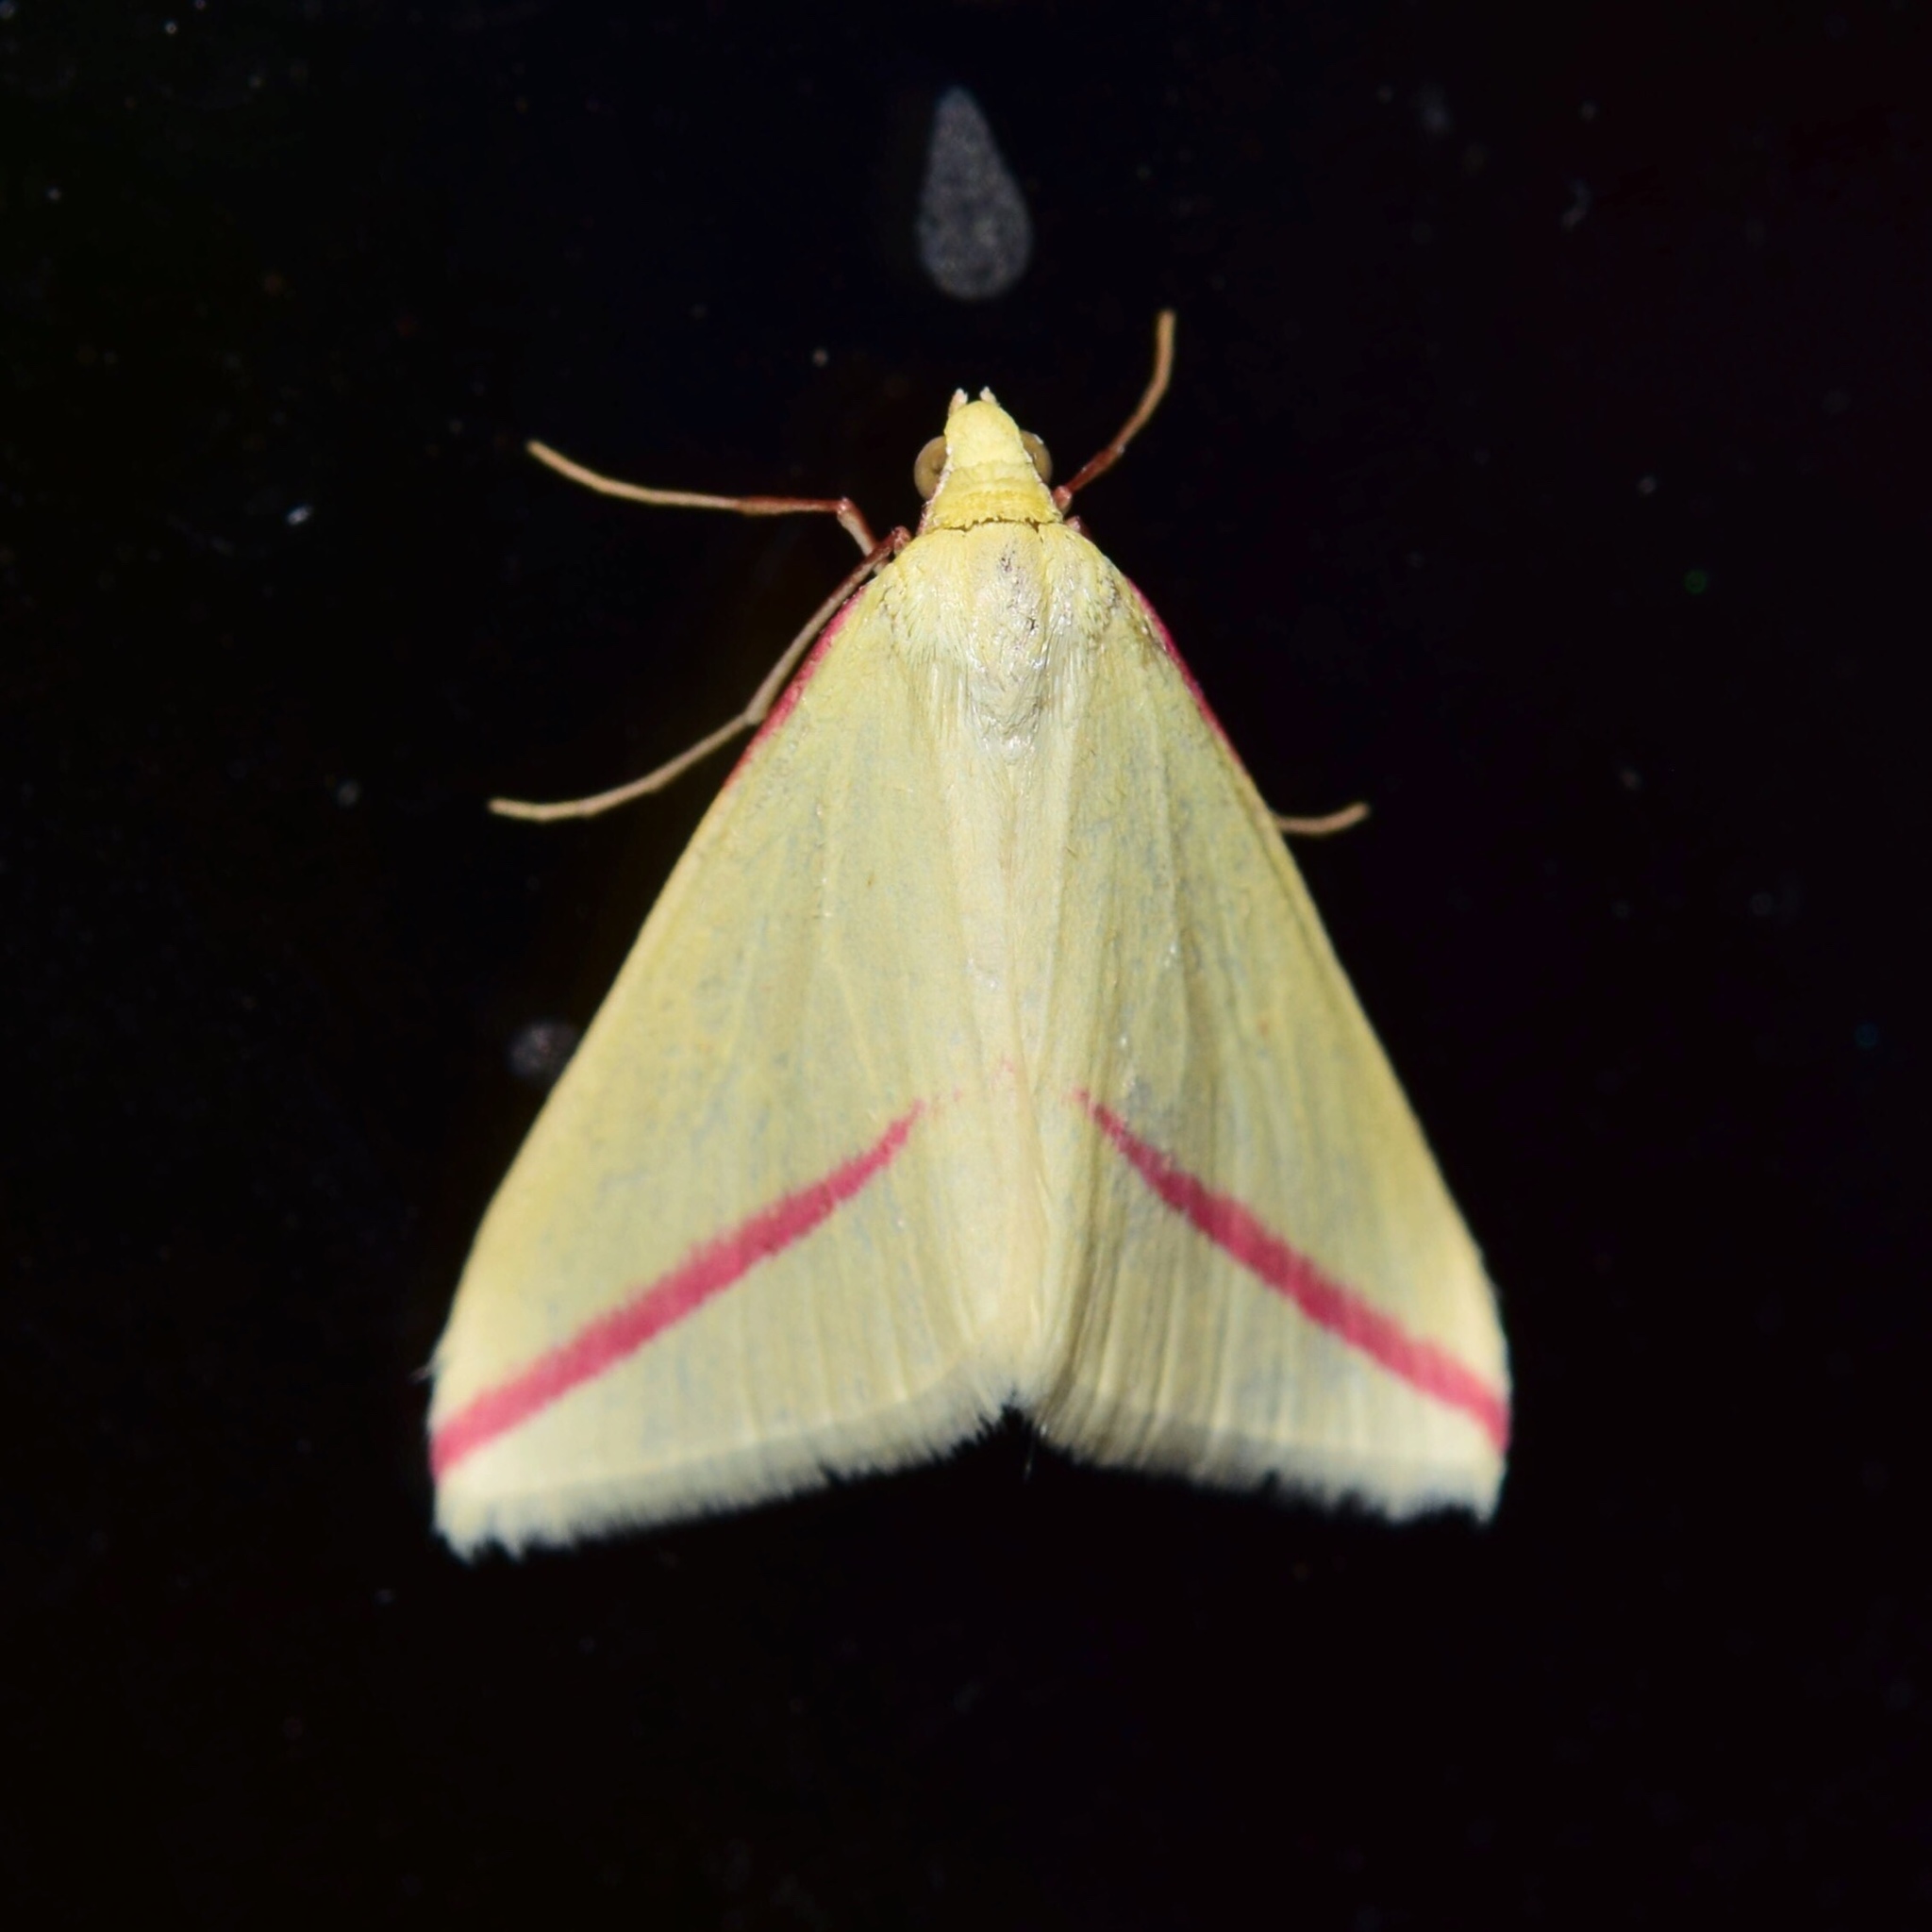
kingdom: Animalia
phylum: Arthropoda
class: Insecta
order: Lepidoptera
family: Geometridae
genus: Rhodometra
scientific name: Rhodometra sacraria
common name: Vestal
